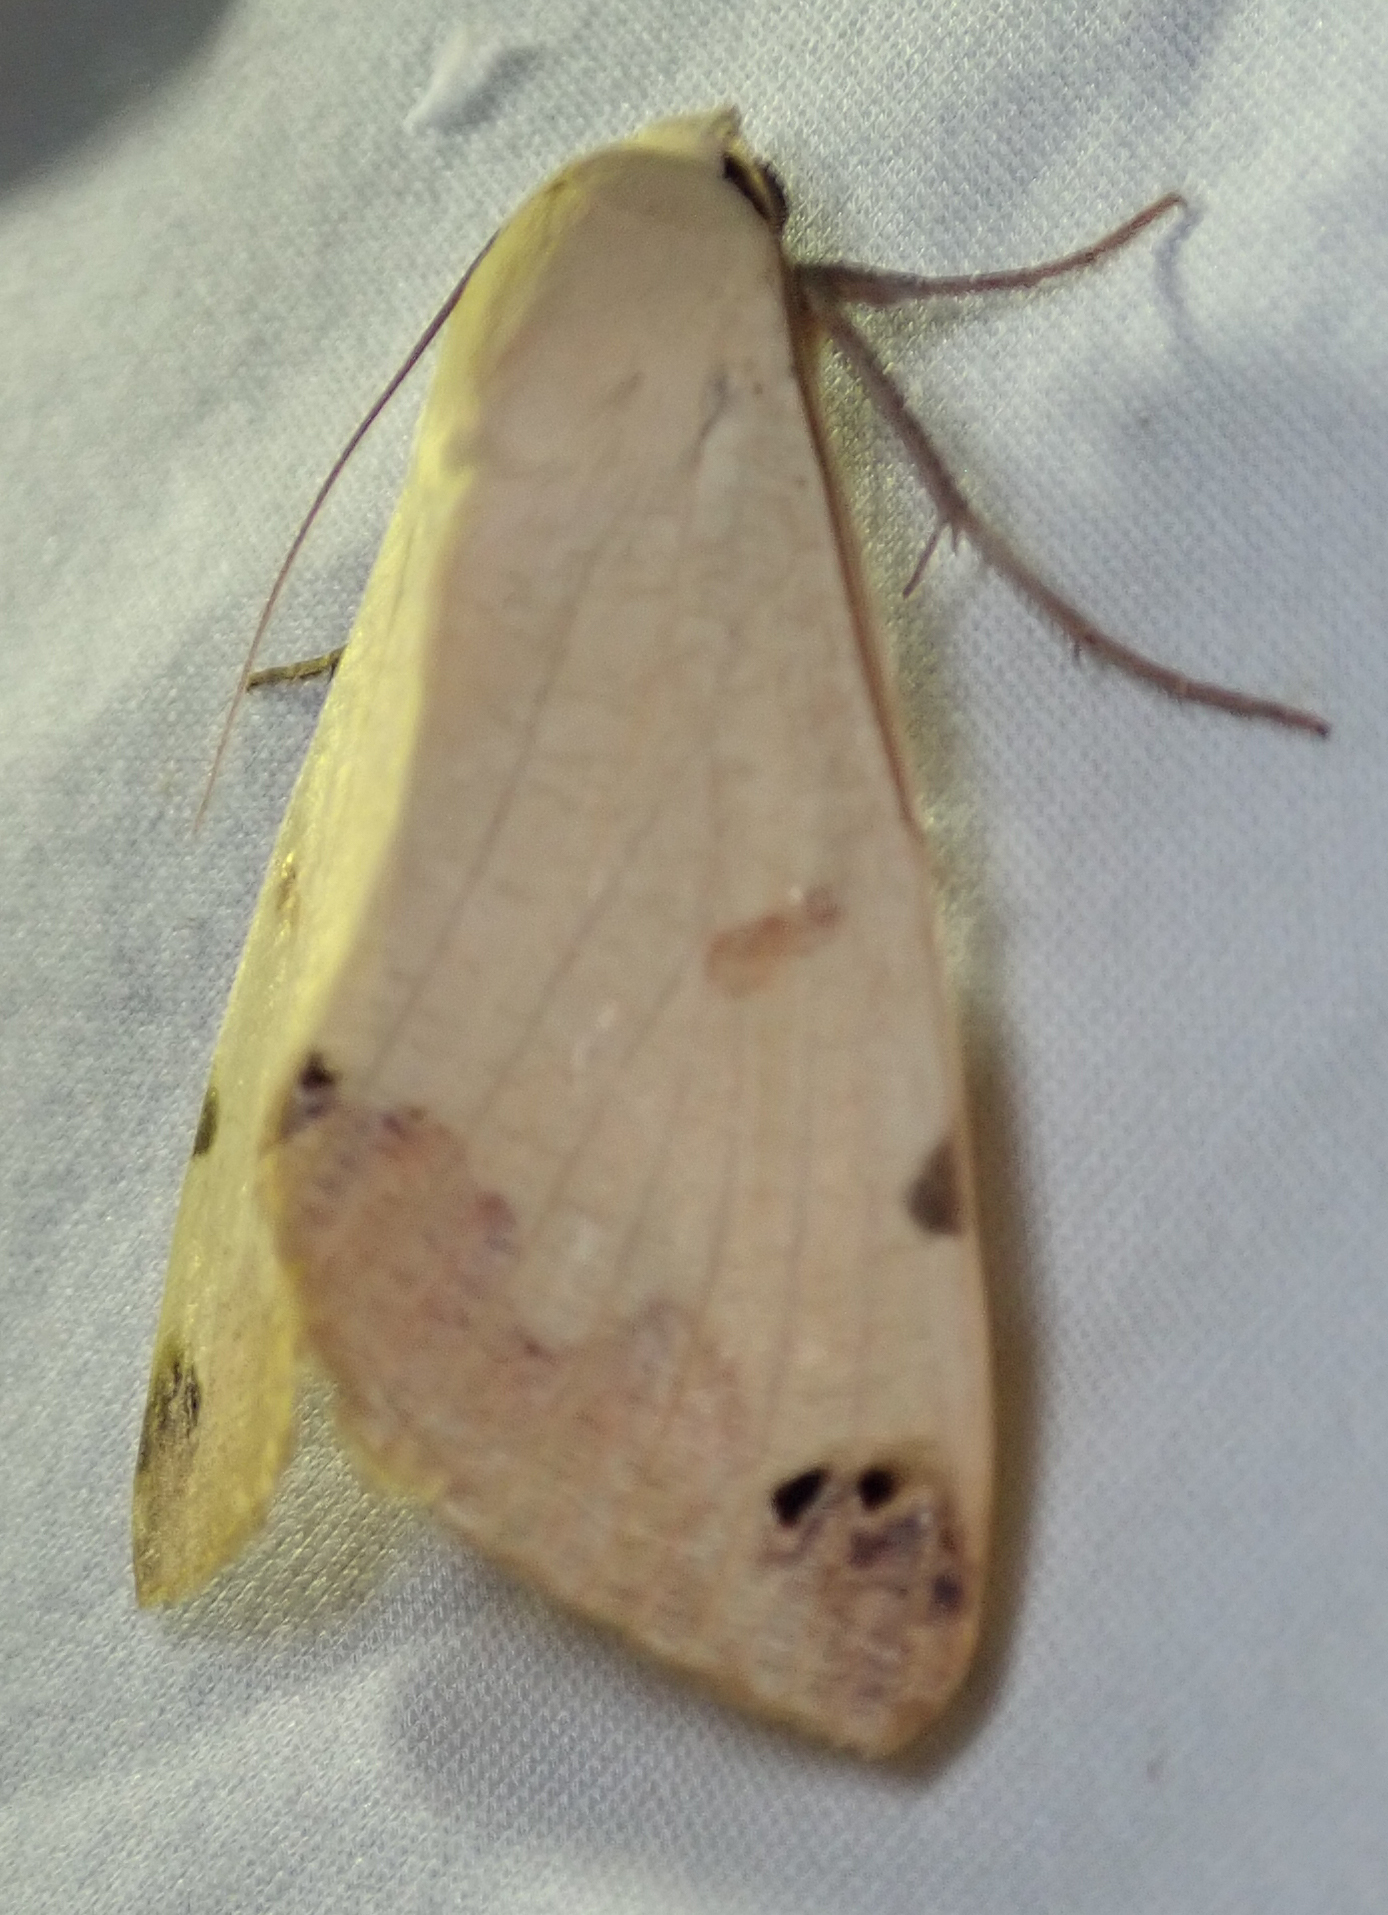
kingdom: Animalia
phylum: Arthropoda
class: Insecta
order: Lepidoptera
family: Erebidae
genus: Ophiusa
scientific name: Ophiusa tirhaca
